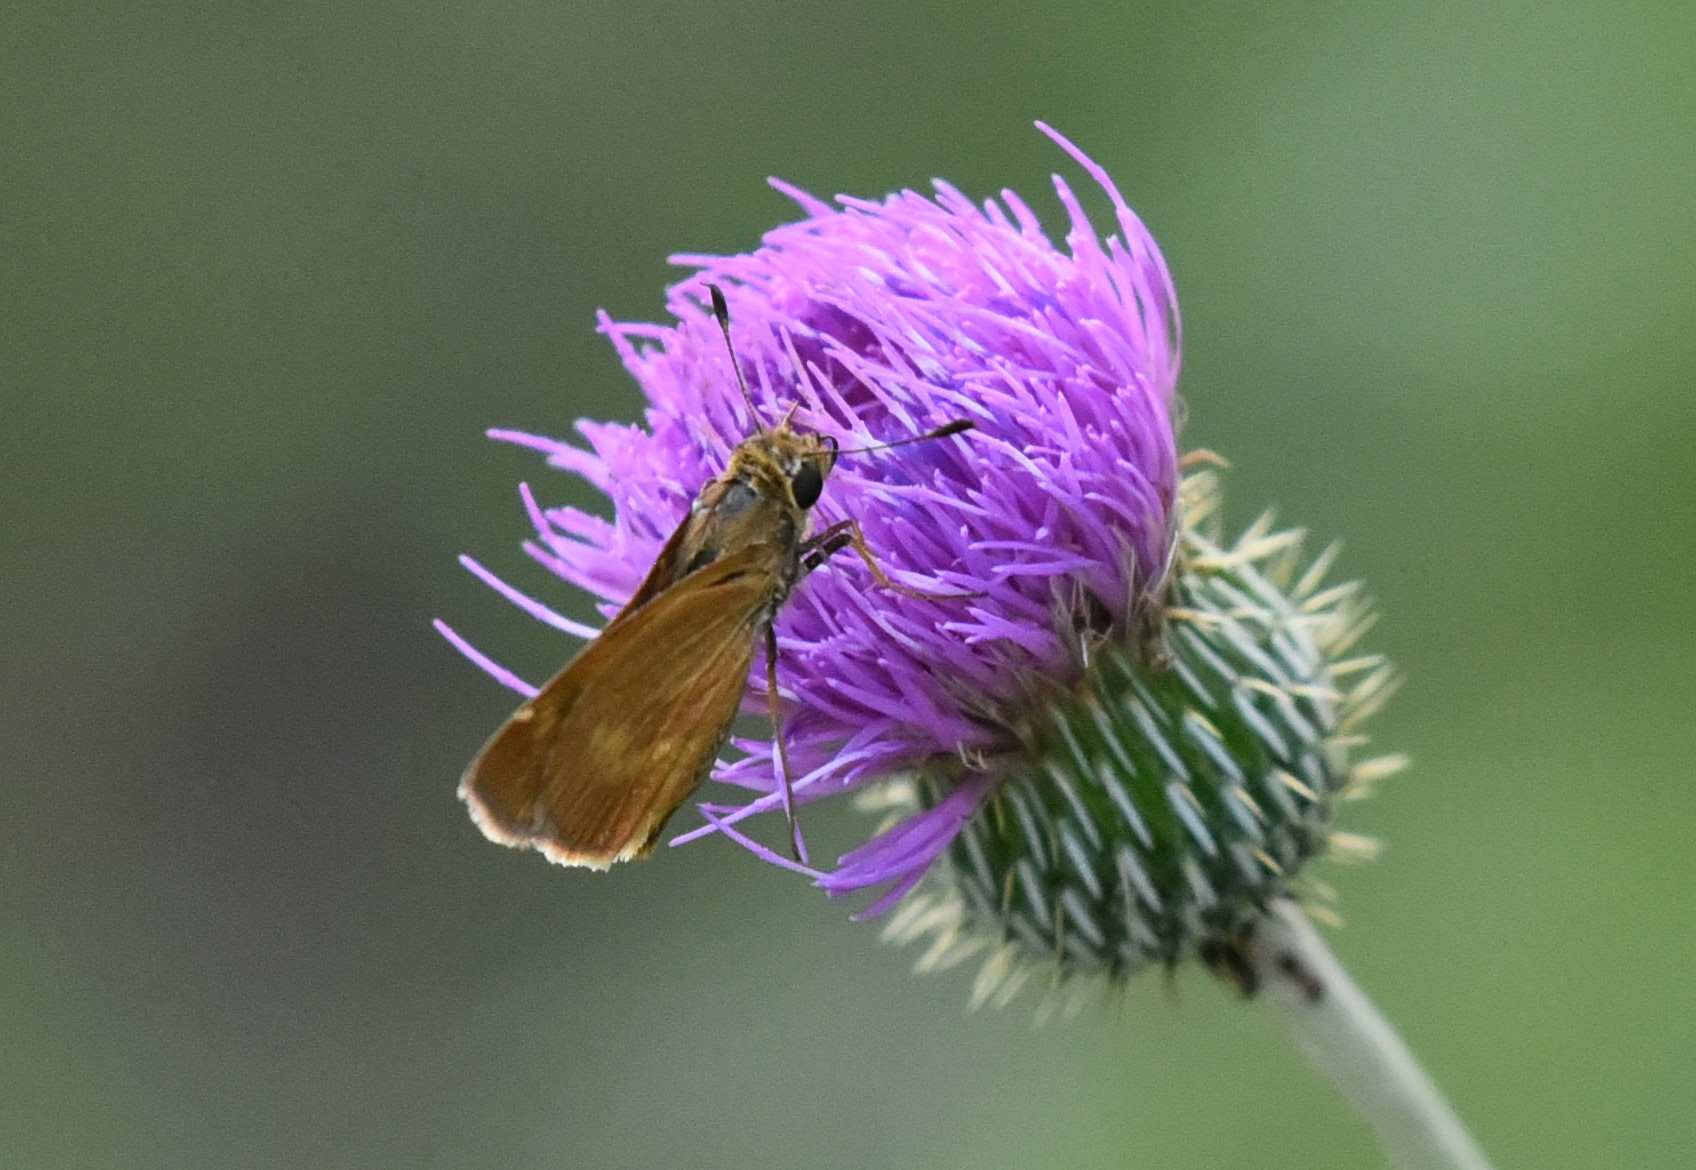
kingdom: Animalia
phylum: Arthropoda
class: Insecta
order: Lepidoptera
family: Hesperiidae
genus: Polites
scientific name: Polites otho
